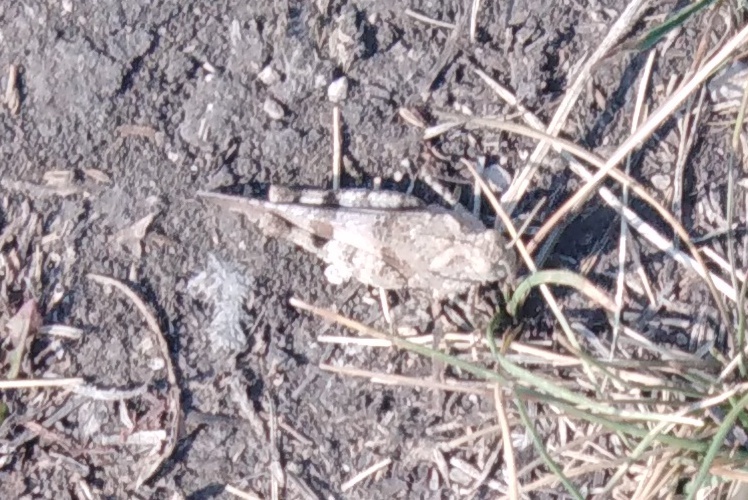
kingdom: Animalia
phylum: Arthropoda
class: Insecta
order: Orthoptera
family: Acrididae
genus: Oedipoda
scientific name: Oedipoda caerulescens
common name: Blue-winged grasshopper
